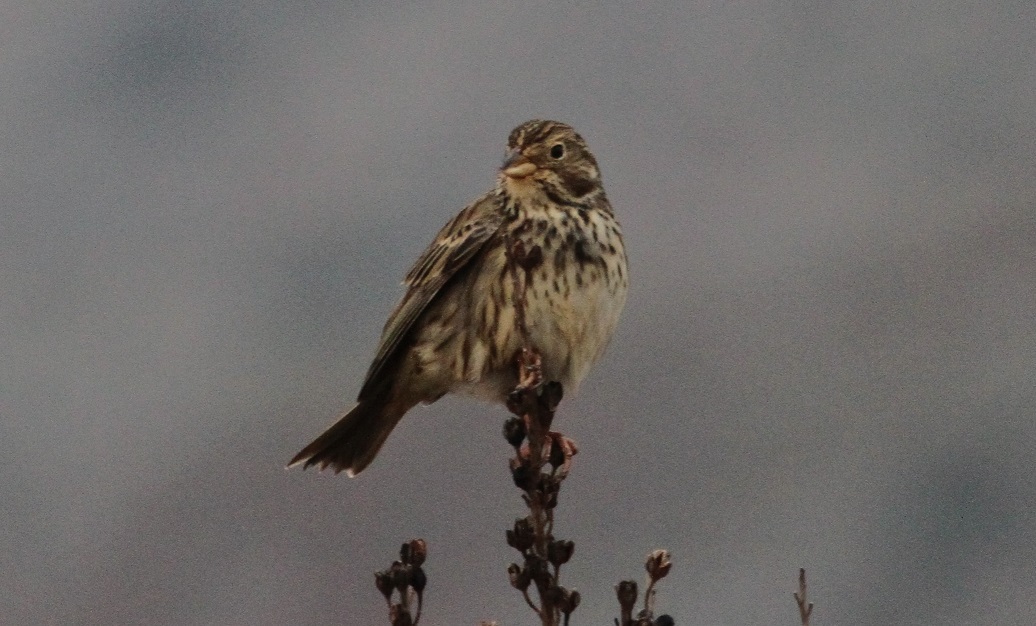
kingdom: Animalia
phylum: Chordata
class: Aves
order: Passeriformes
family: Emberizidae
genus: Emberiza
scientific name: Emberiza calandra
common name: Corn bunting
